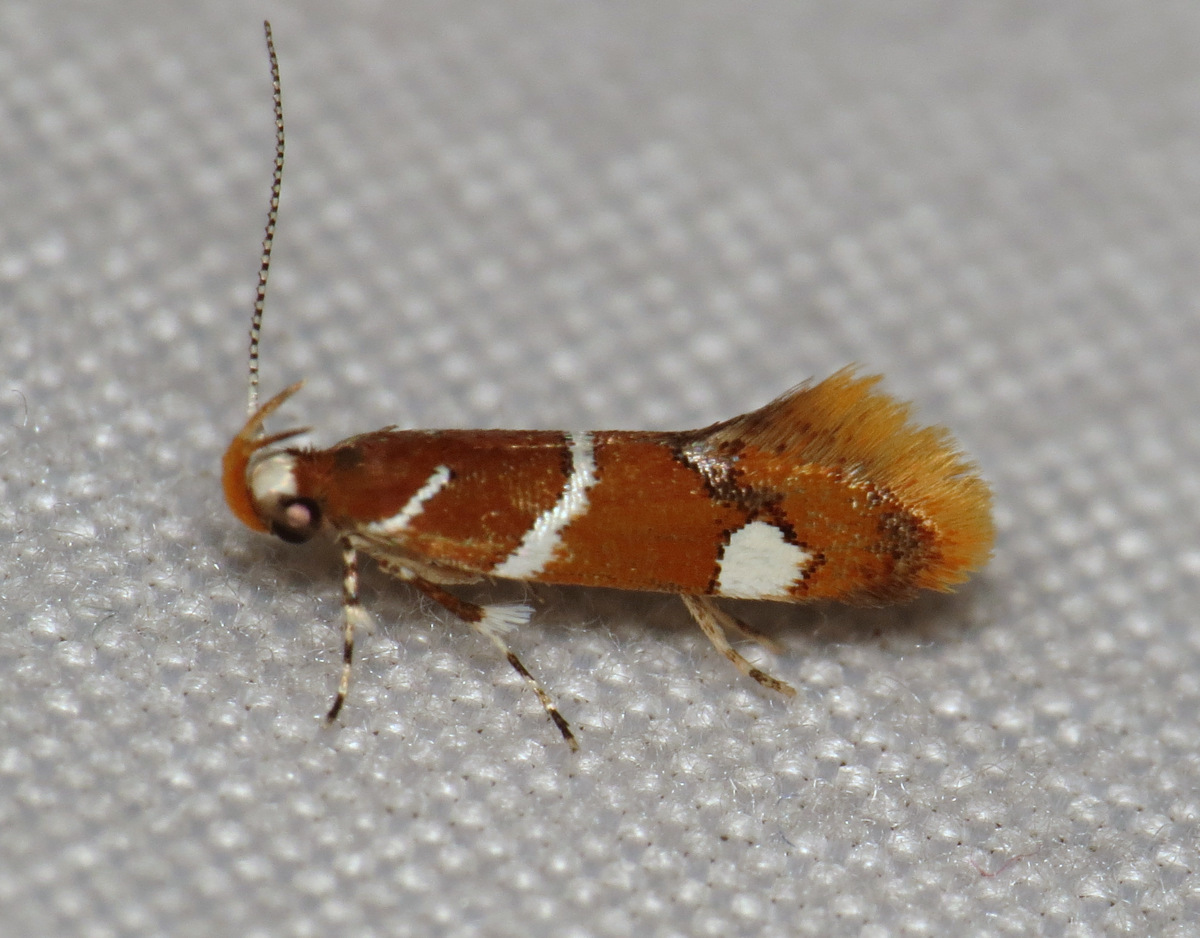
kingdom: Animalia
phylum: Arthropoda
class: Insecta
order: Lepidoptera
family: Oecophoridae
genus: Promalactis
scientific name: Promalactis suzukiella
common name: Moth
